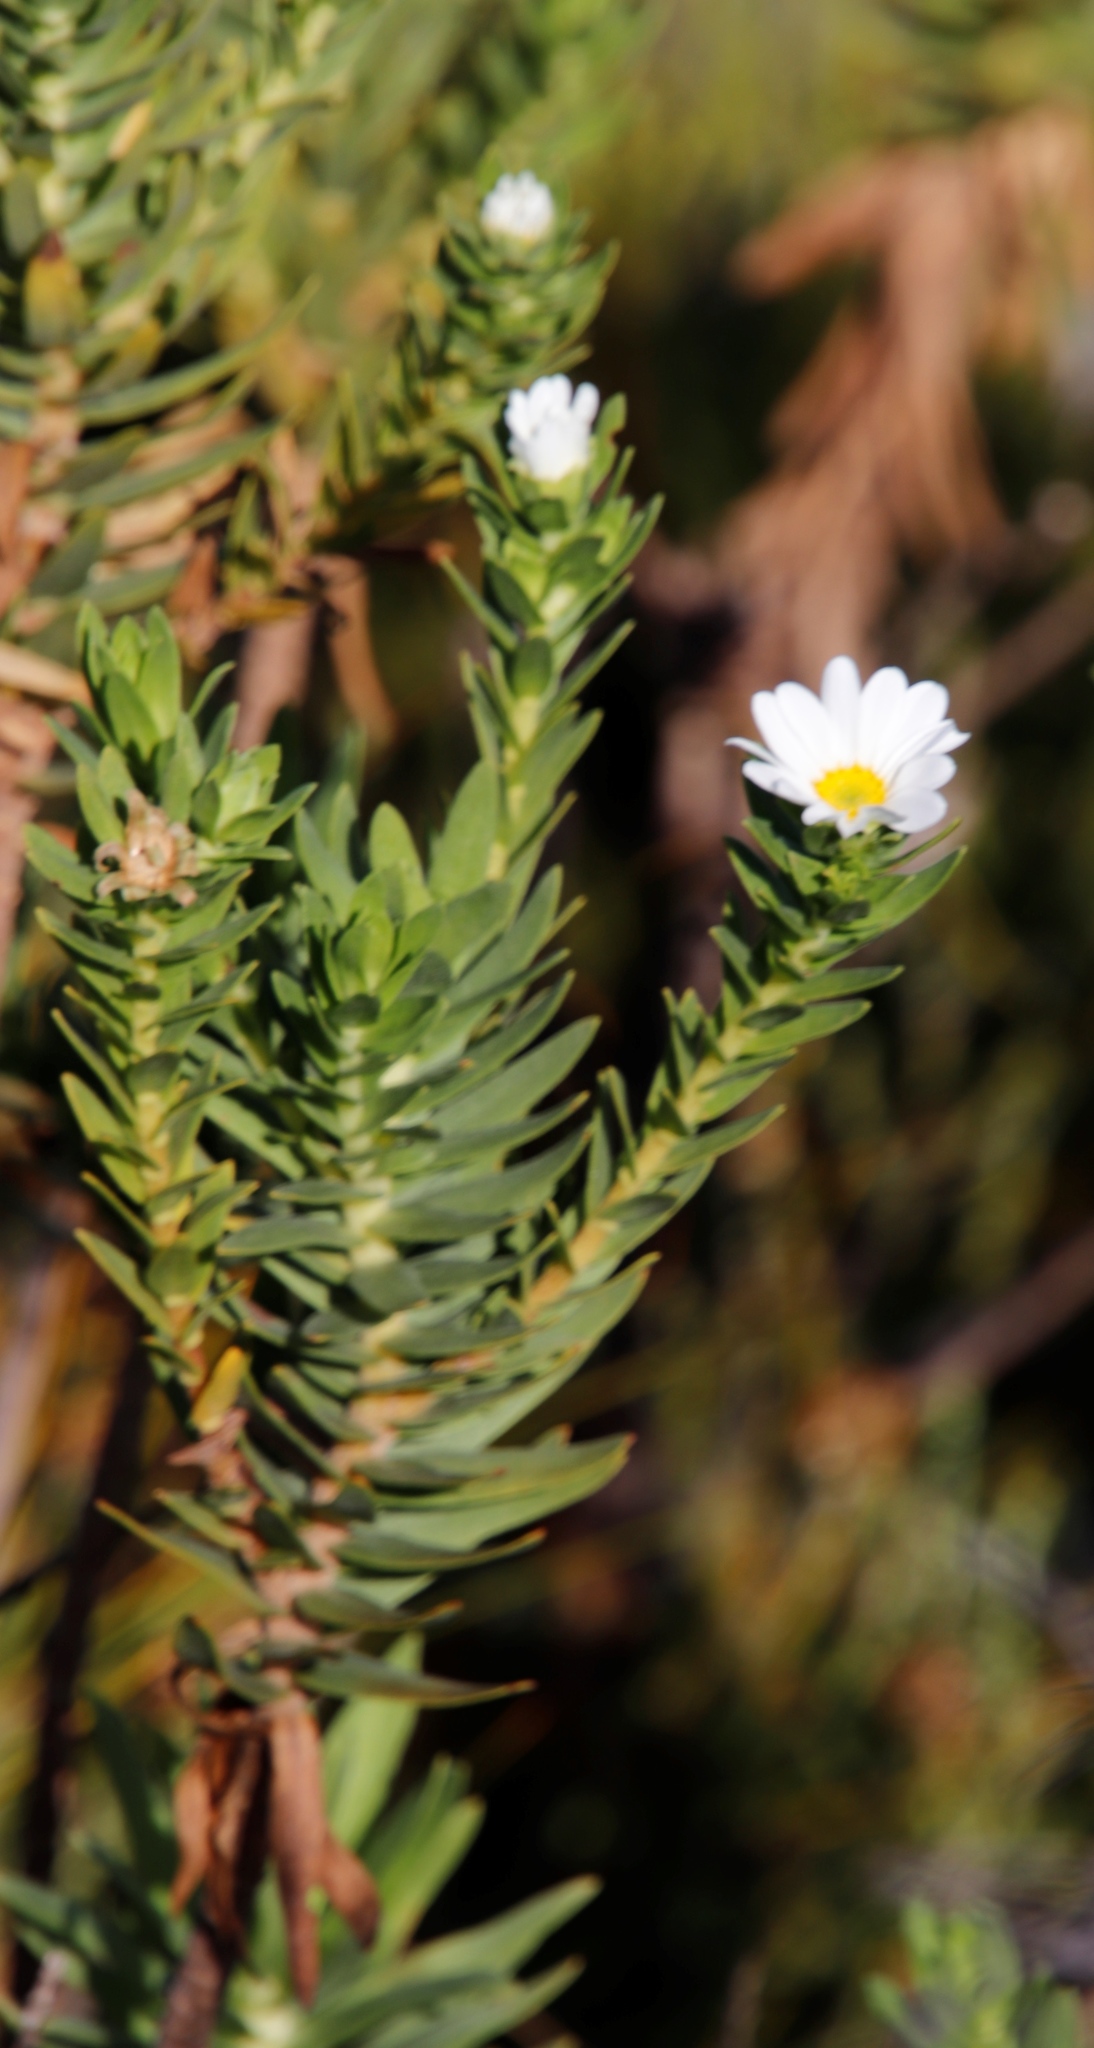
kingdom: Plantae
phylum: Tracheophyta
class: Magnoliopsida
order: Asterales
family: Asteraceae
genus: Osmitopsis
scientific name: Osmitopsis asteriscoides
